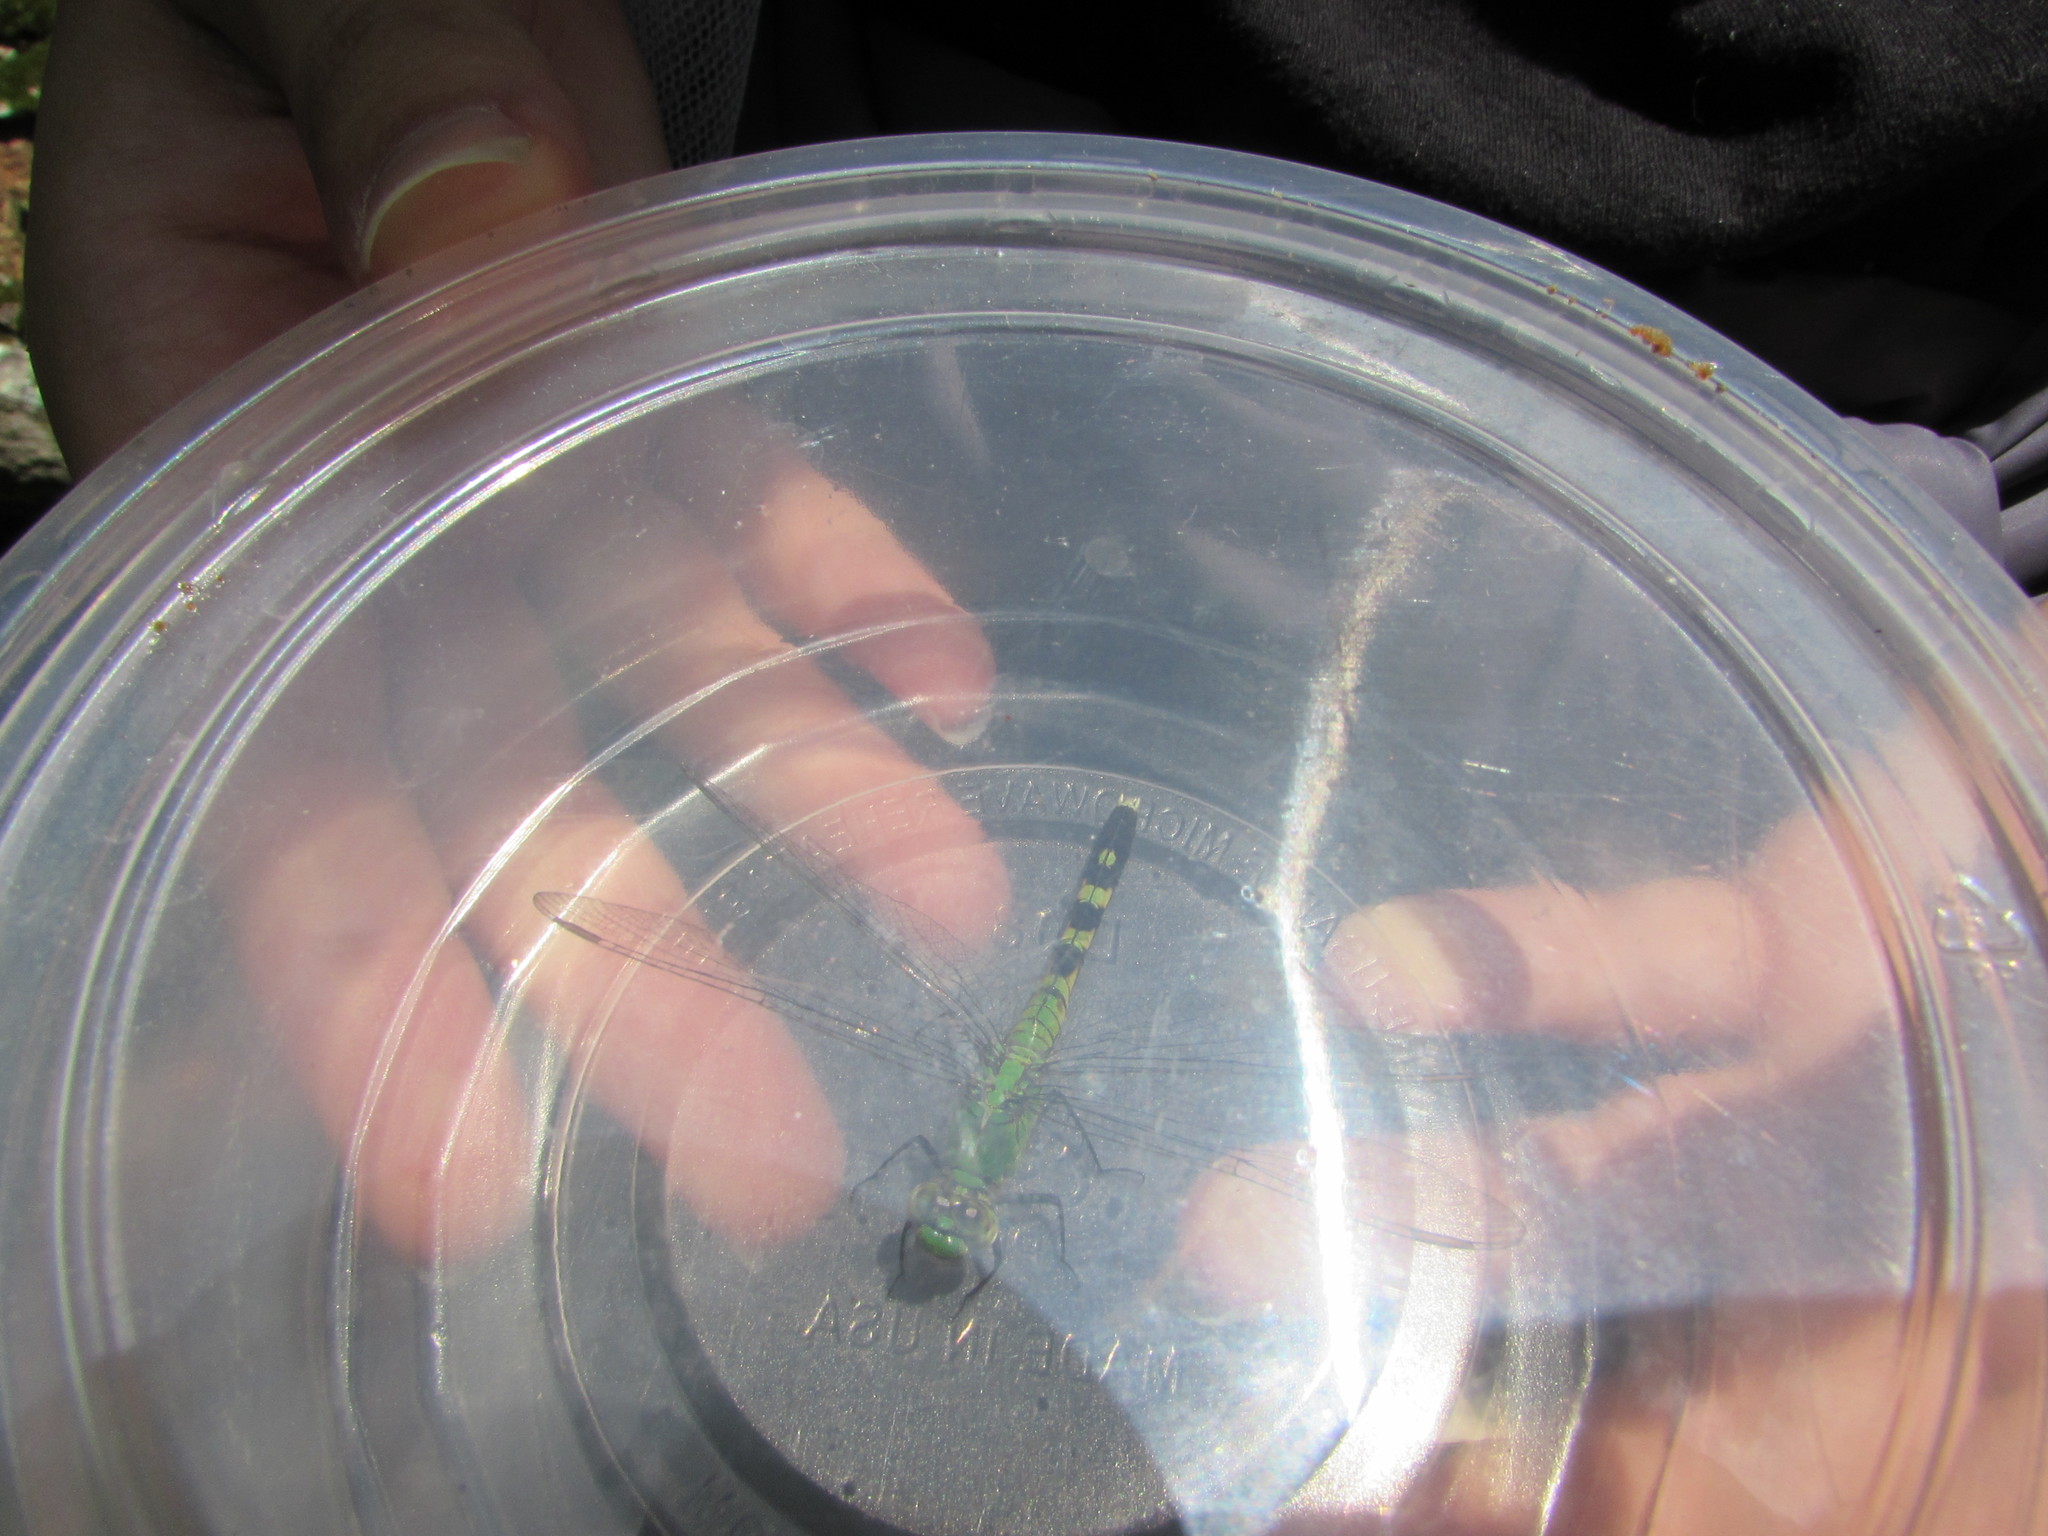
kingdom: Animalia
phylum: Arthropoda
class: Insecta
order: Odonata
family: Libellulidae
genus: Erythemis
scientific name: Erythemis simplicicollis
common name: Eastern pondhawk
